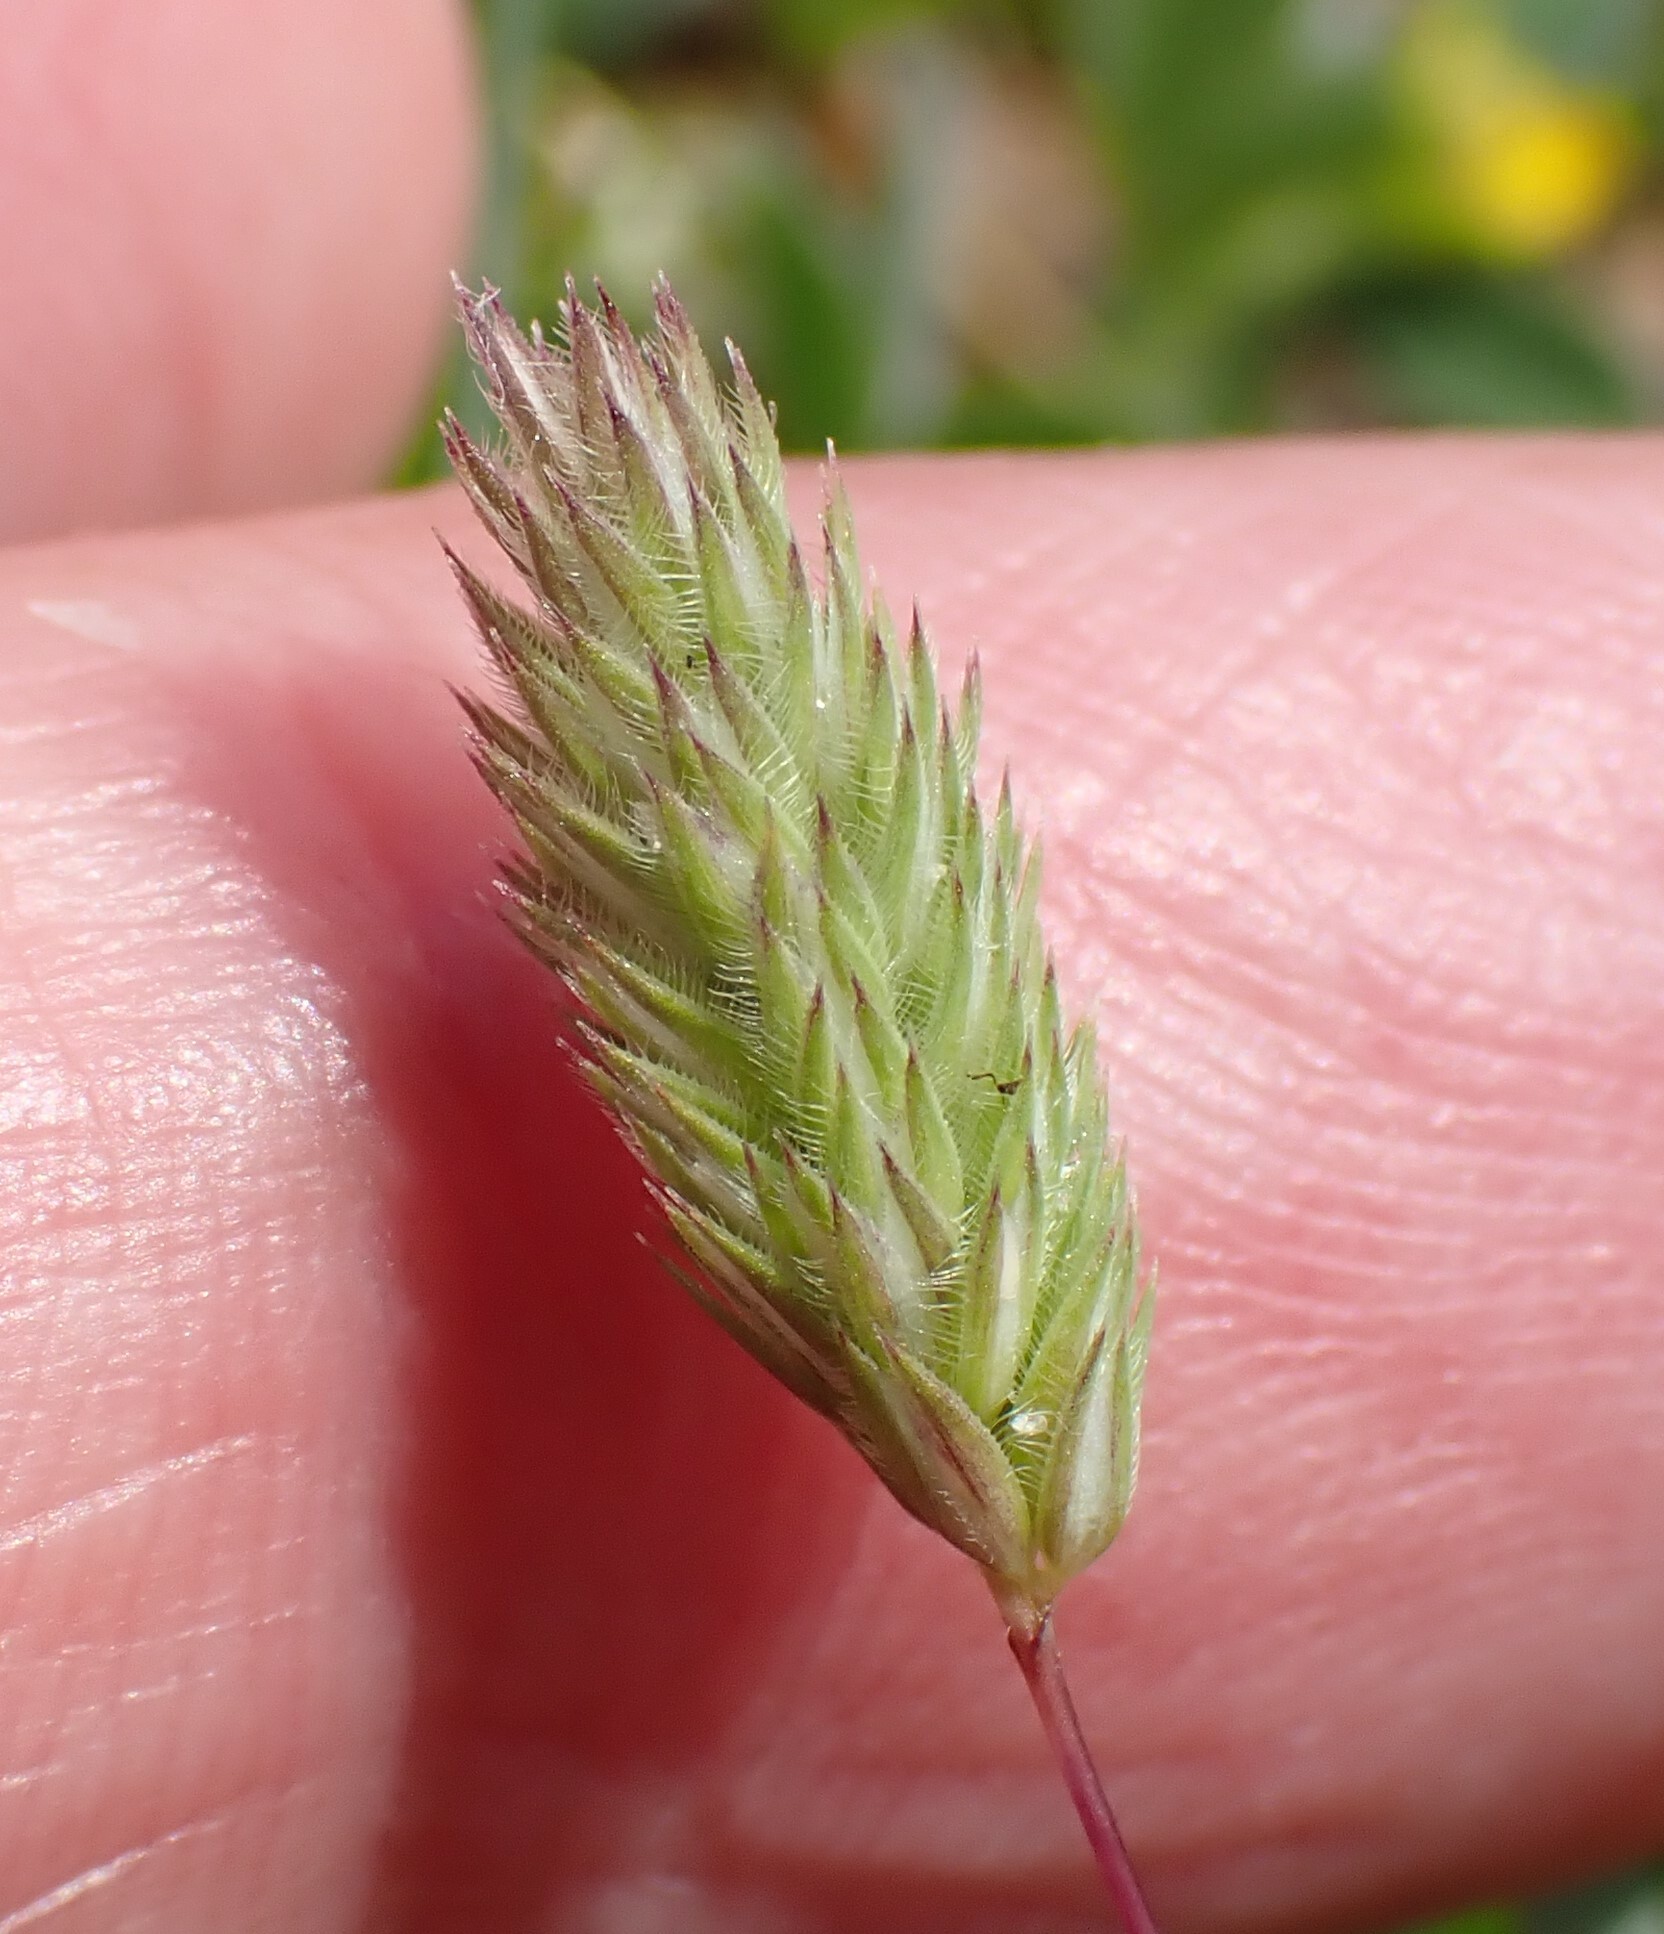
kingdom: Plantae
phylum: Tracheophyta
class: Liliopsida
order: Poales
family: Poaceae
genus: Phleum
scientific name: Phleum arenarium
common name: Sand cat's-tail
